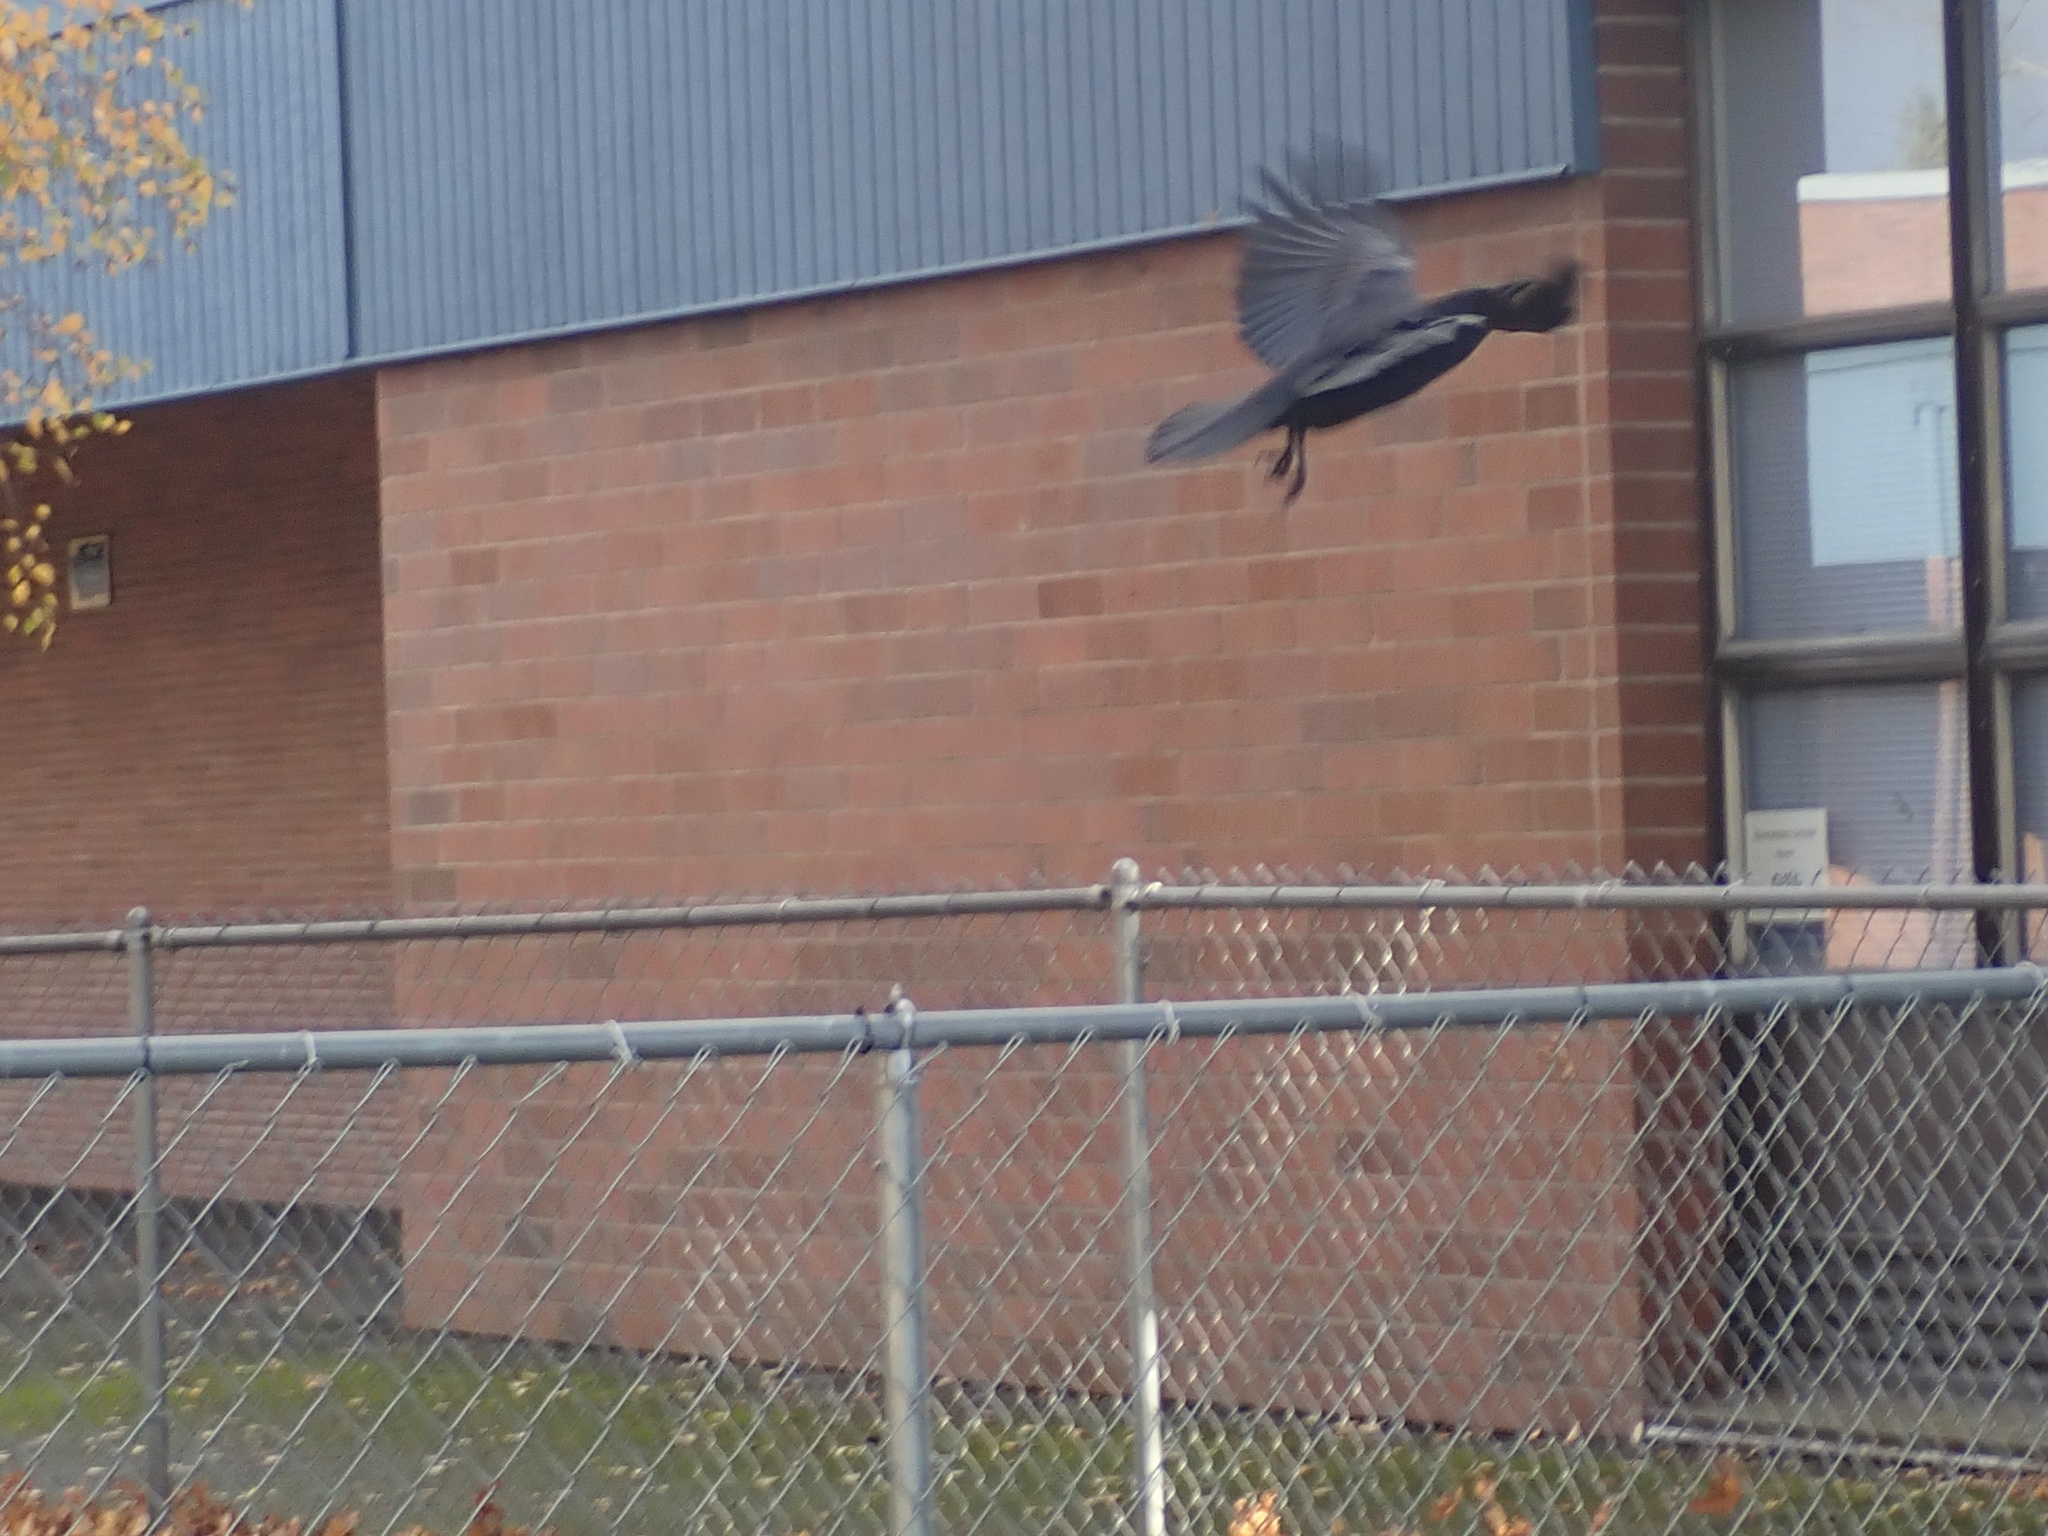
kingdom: Animalia
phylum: Chordata
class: Aves
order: Passeriformes
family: Corvidae
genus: Corvus
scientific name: Corvus brachyrhynchos
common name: American crow
